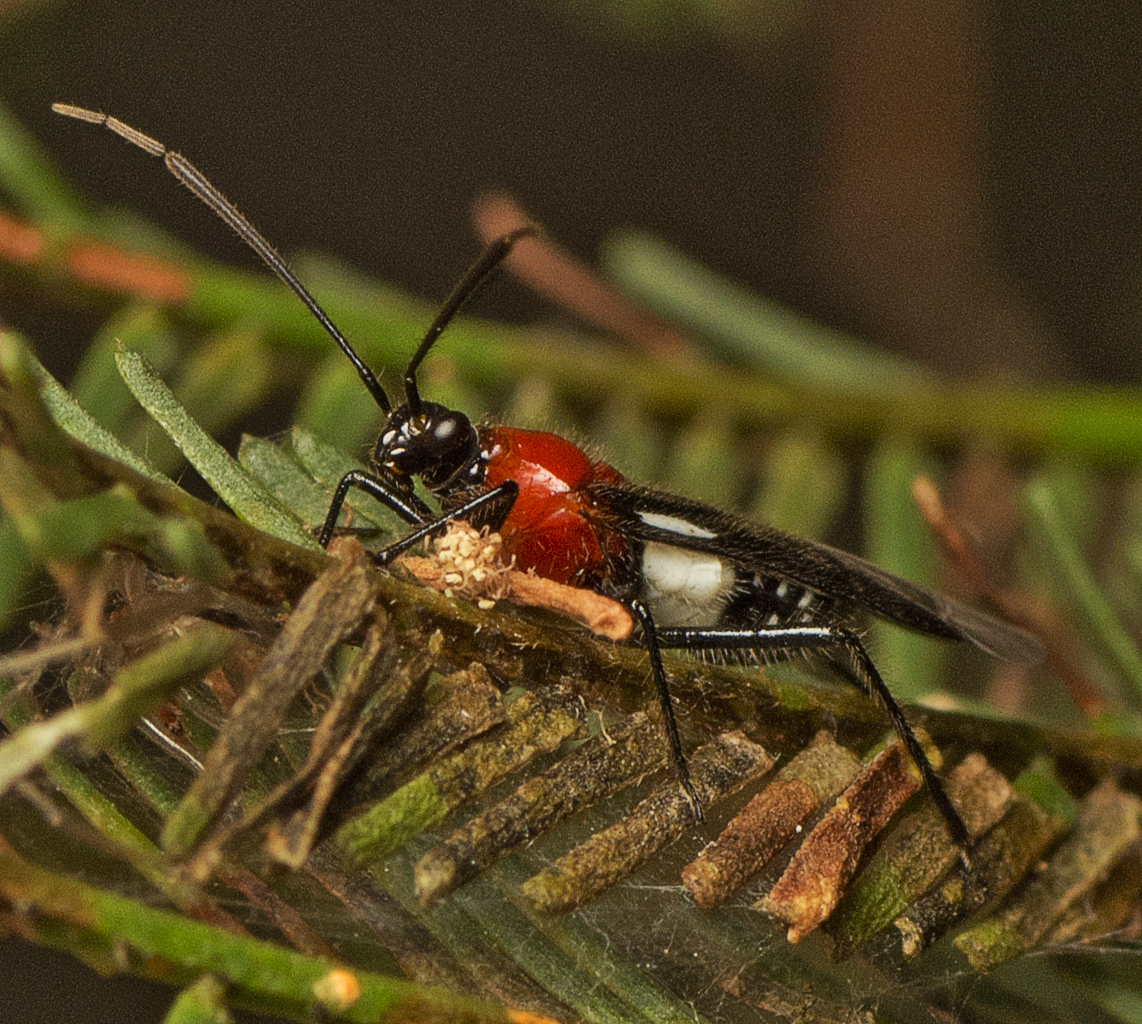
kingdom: Animalia
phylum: Arthropoda
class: Insecta
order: Hemiptera
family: Miridae
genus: Trilaccus
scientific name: Trilaccus
